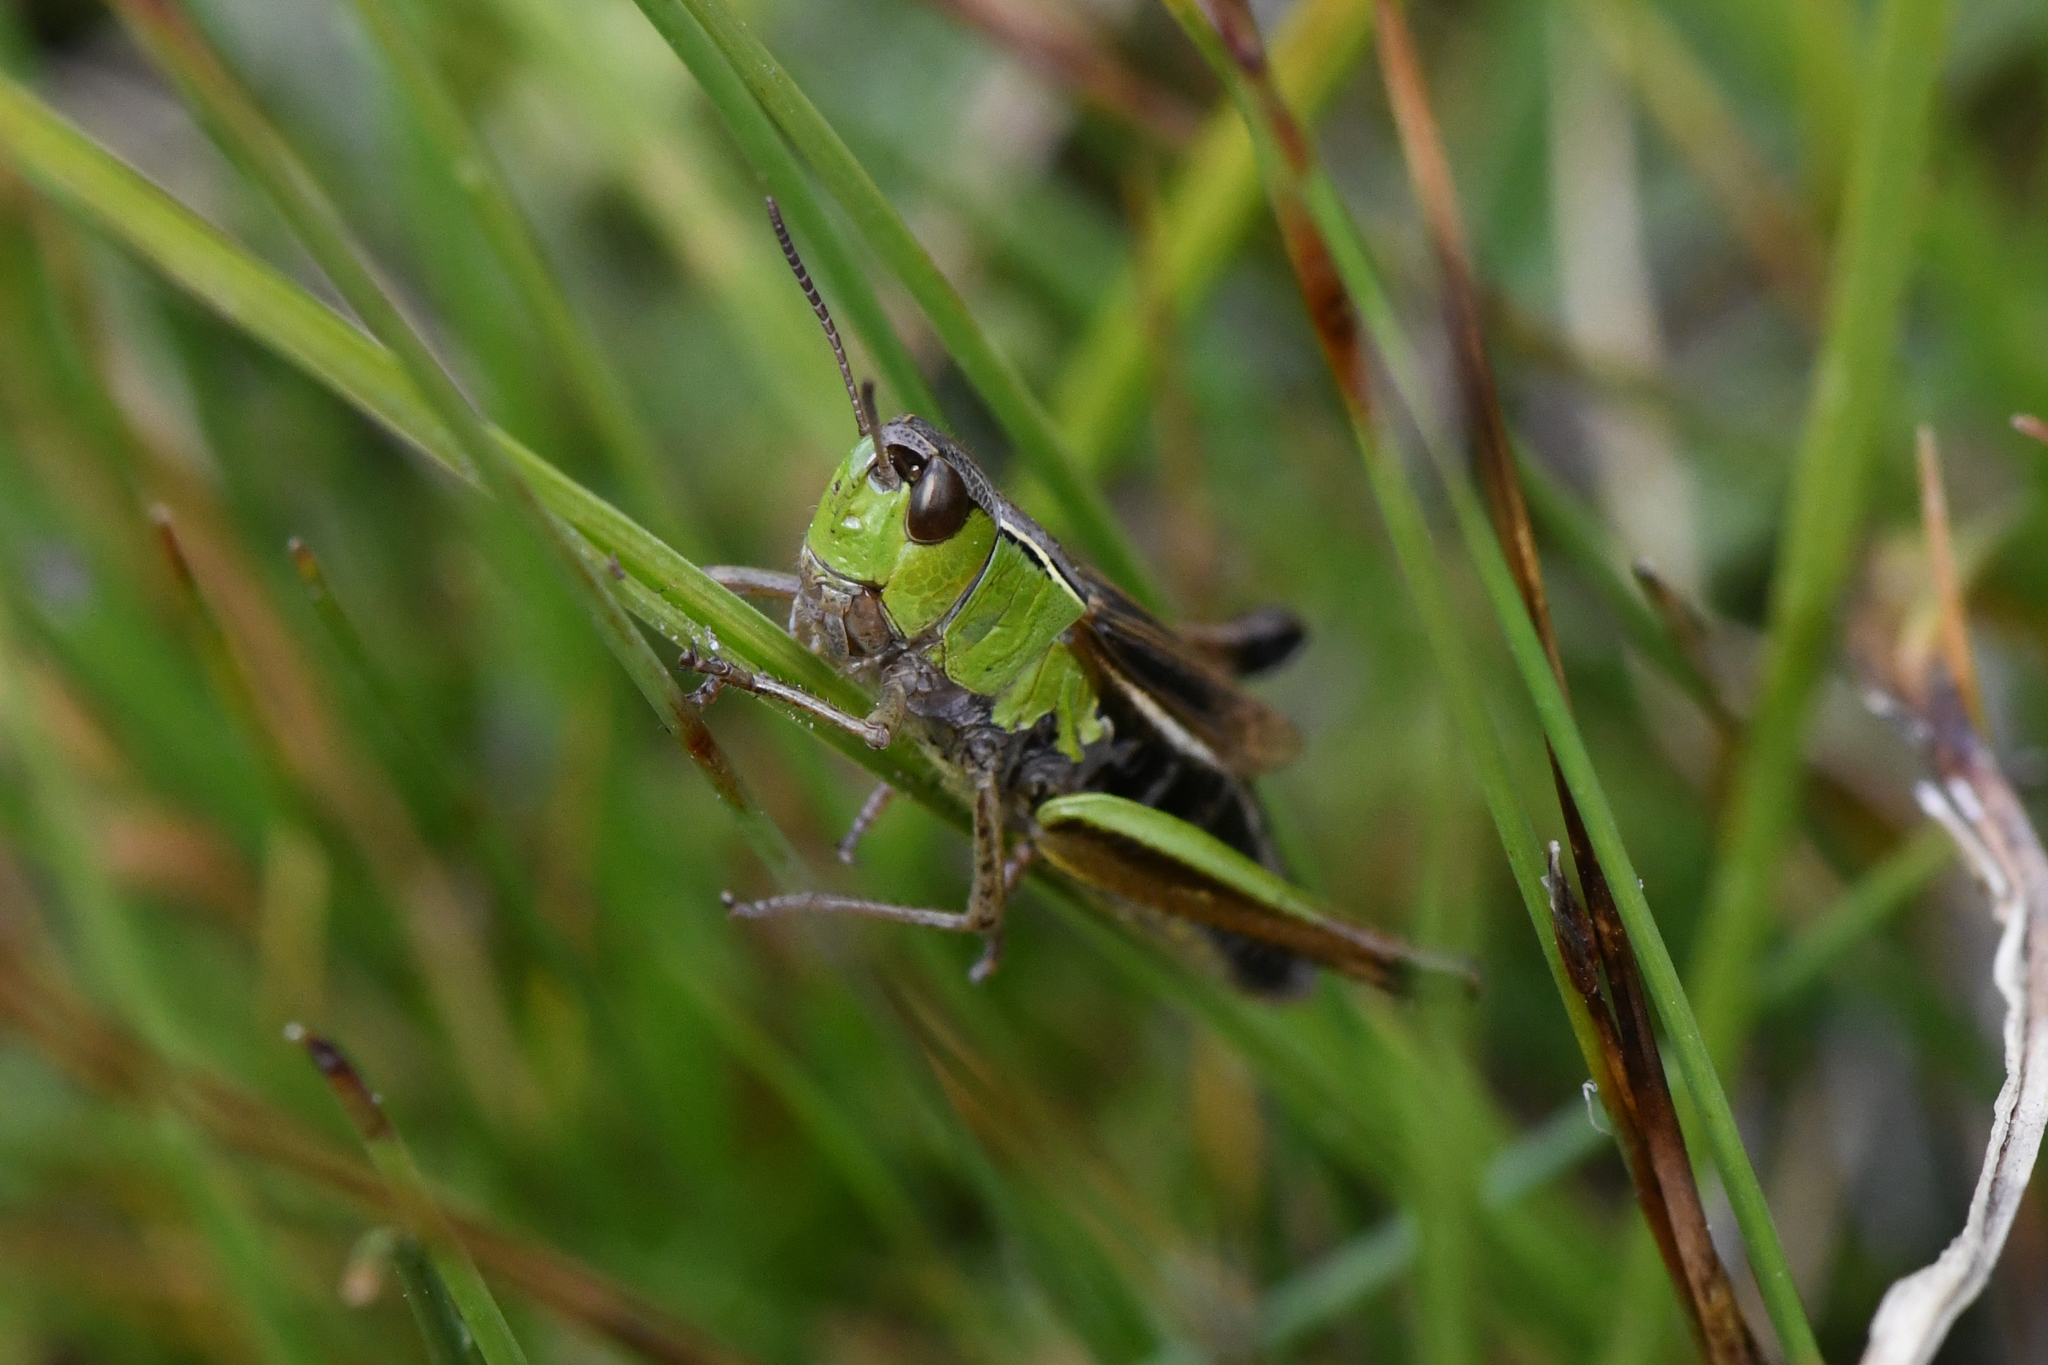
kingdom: Animalia
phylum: Arthropoda
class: Insecta
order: Orthoptera
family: Acrididae
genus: Pseudochorthippus
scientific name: Pseudochorthippus curtipennis
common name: Marsh meadow grasshopper
